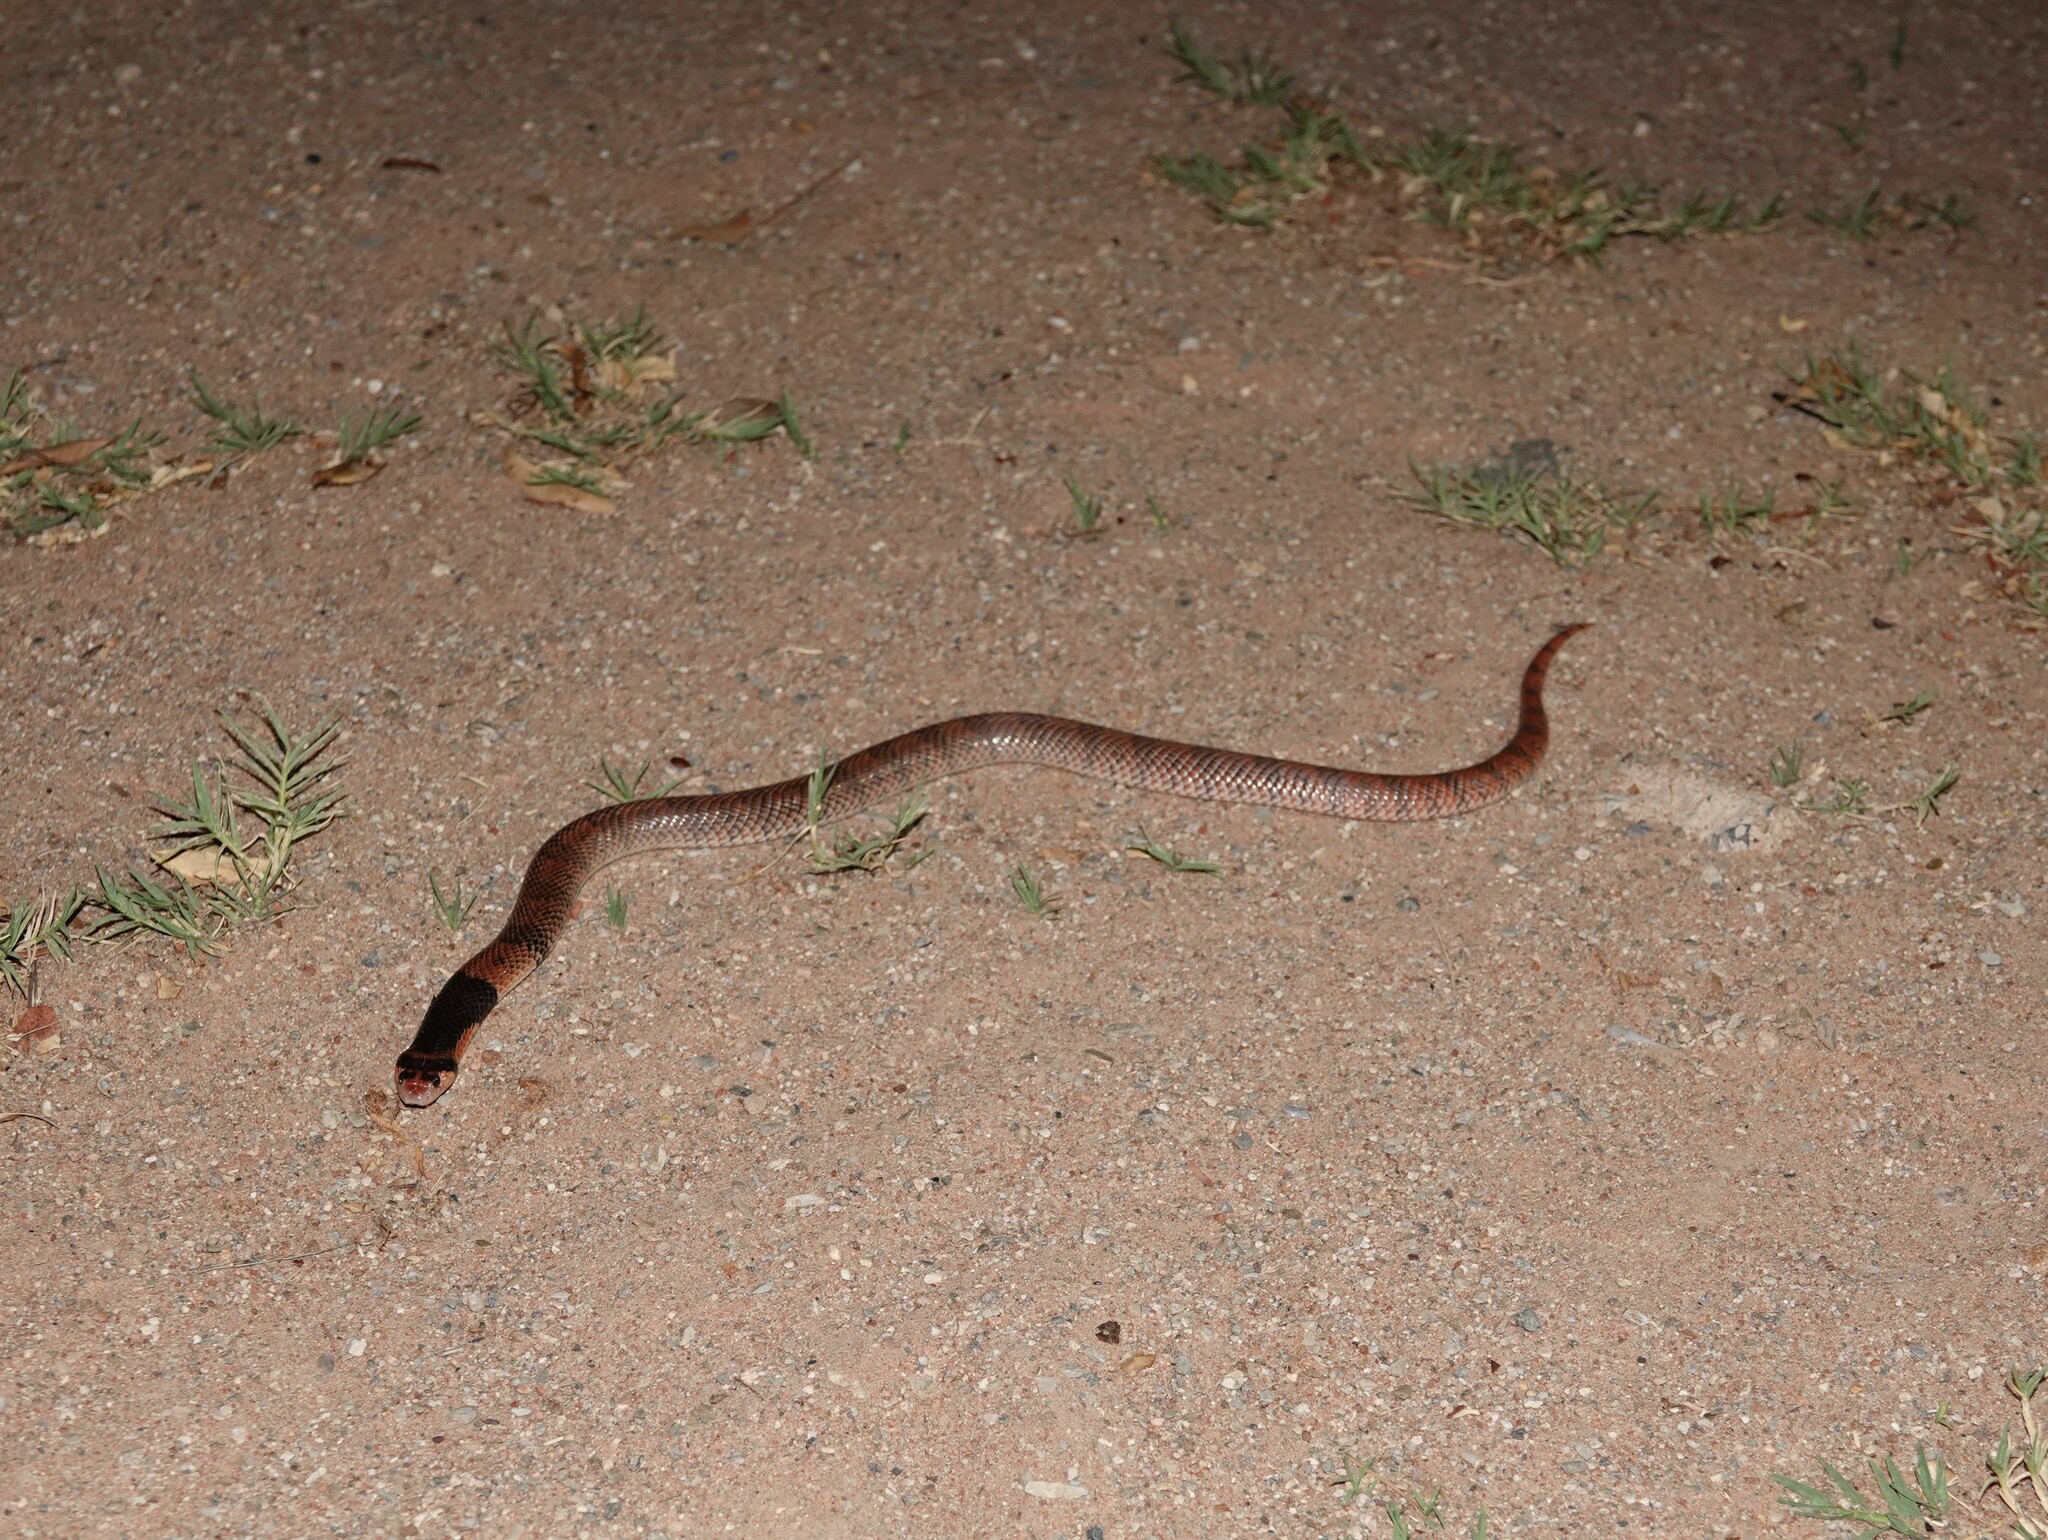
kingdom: Animalia
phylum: Chordata
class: Squamata
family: Elapidae
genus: Aspidelaps
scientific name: Aspidelaps lubricus
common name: Coral shield cobra
